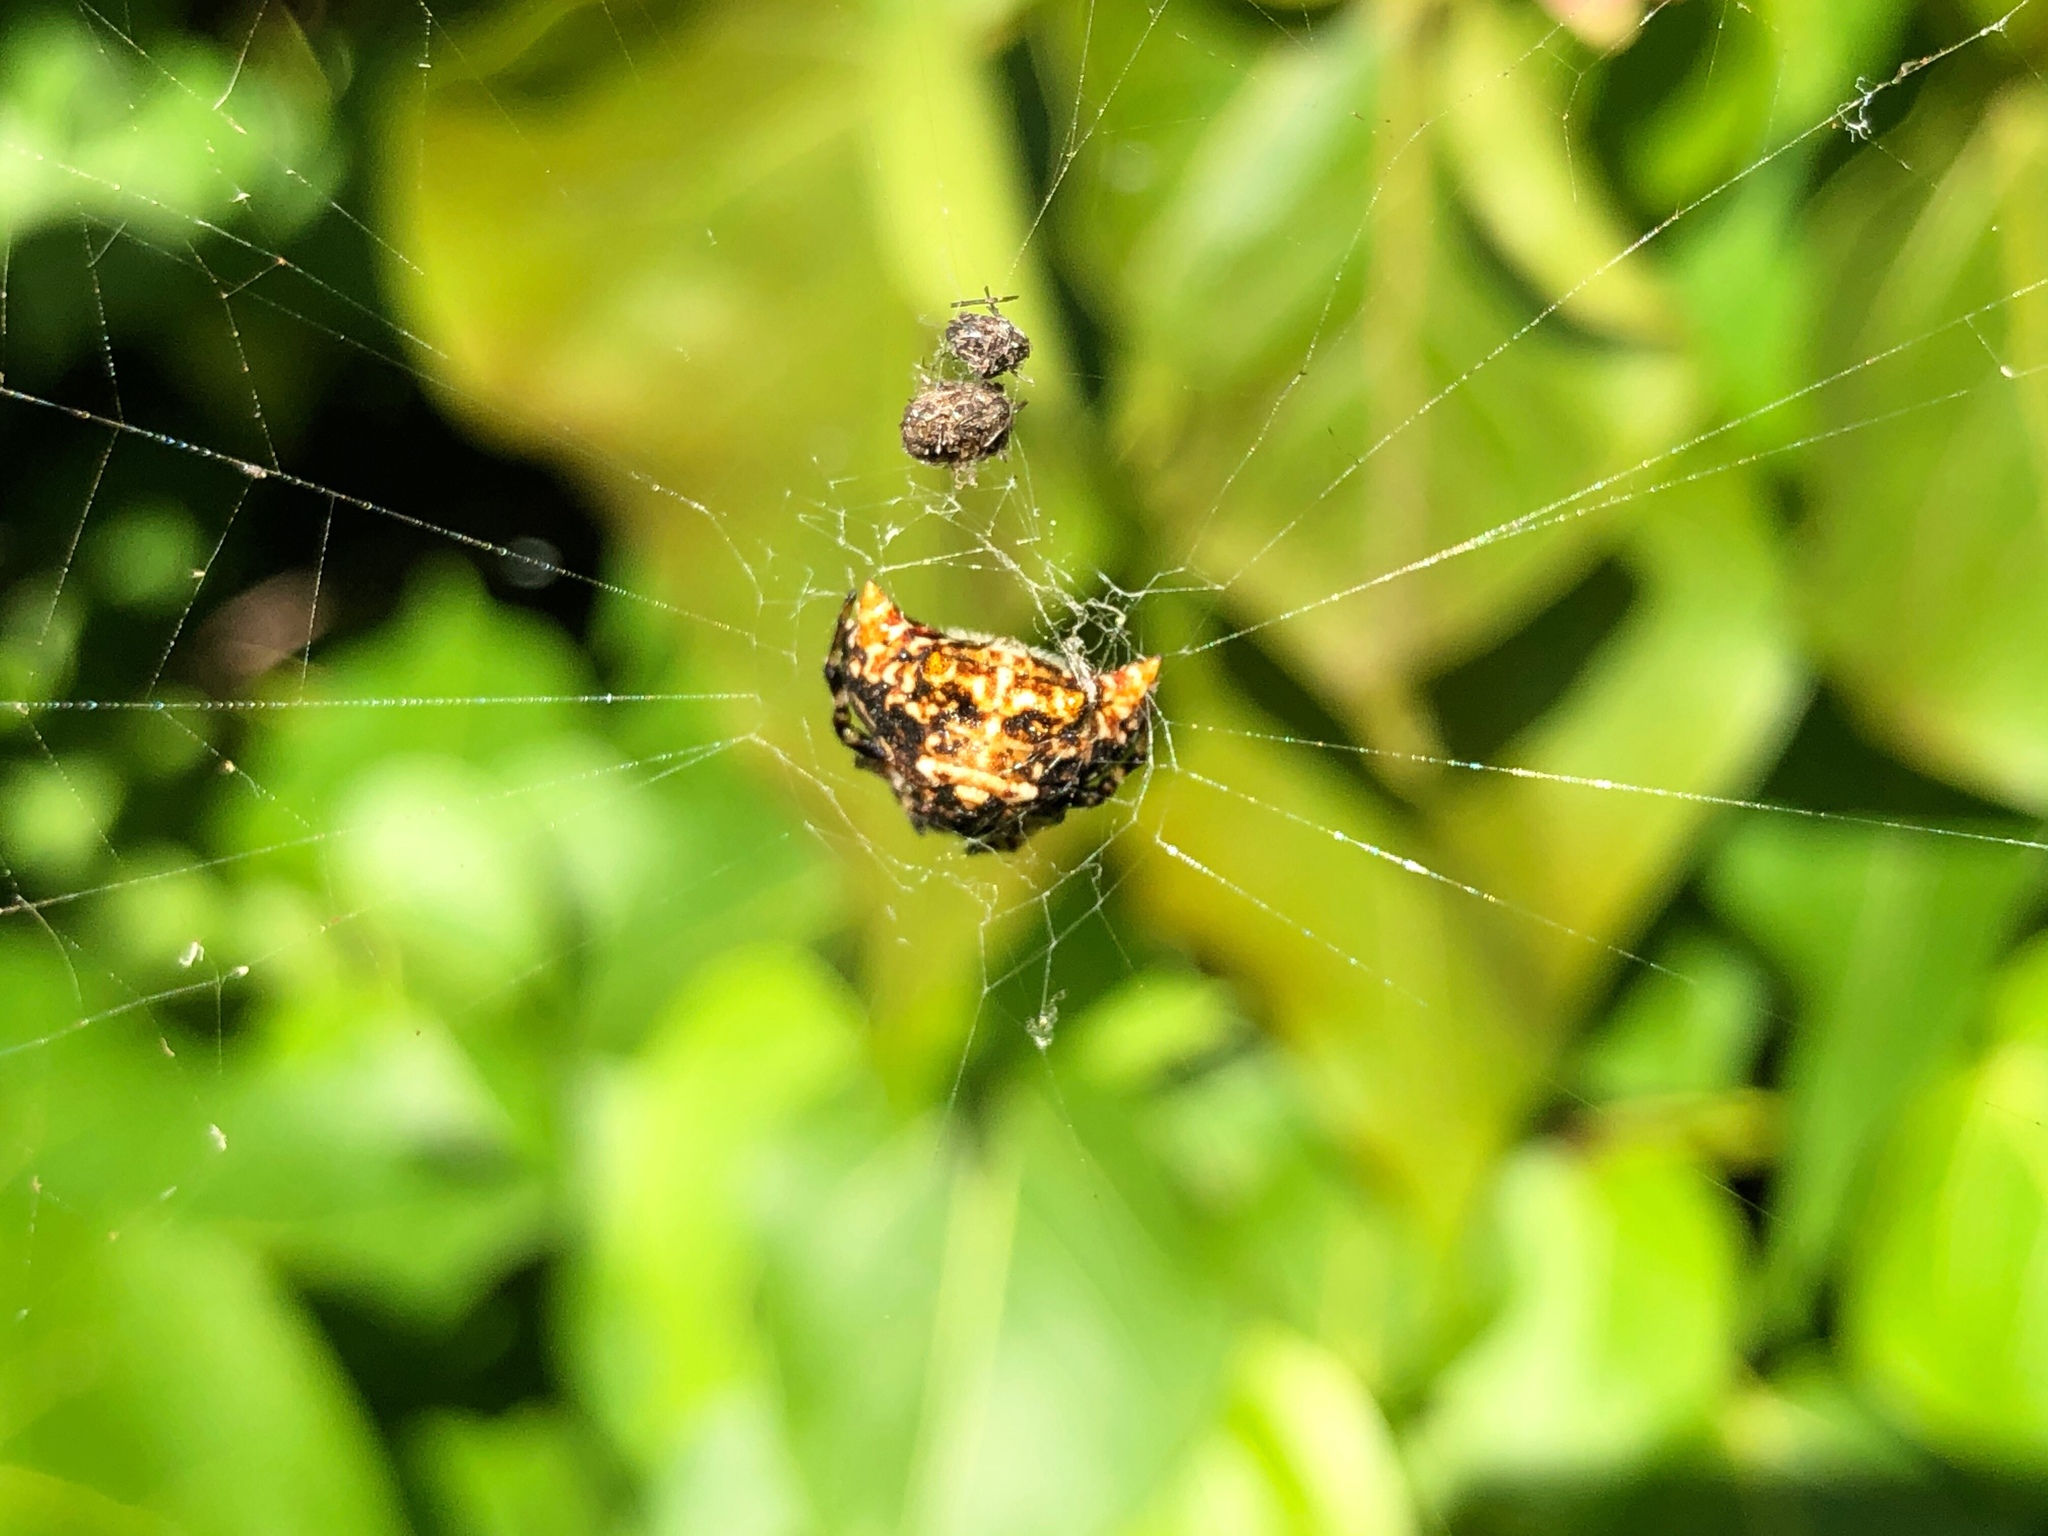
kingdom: Animalia
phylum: Arthropoda
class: Arachnida
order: Araneae
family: Araneidae
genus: Thelacantha
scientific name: Thelacantha brevispina
